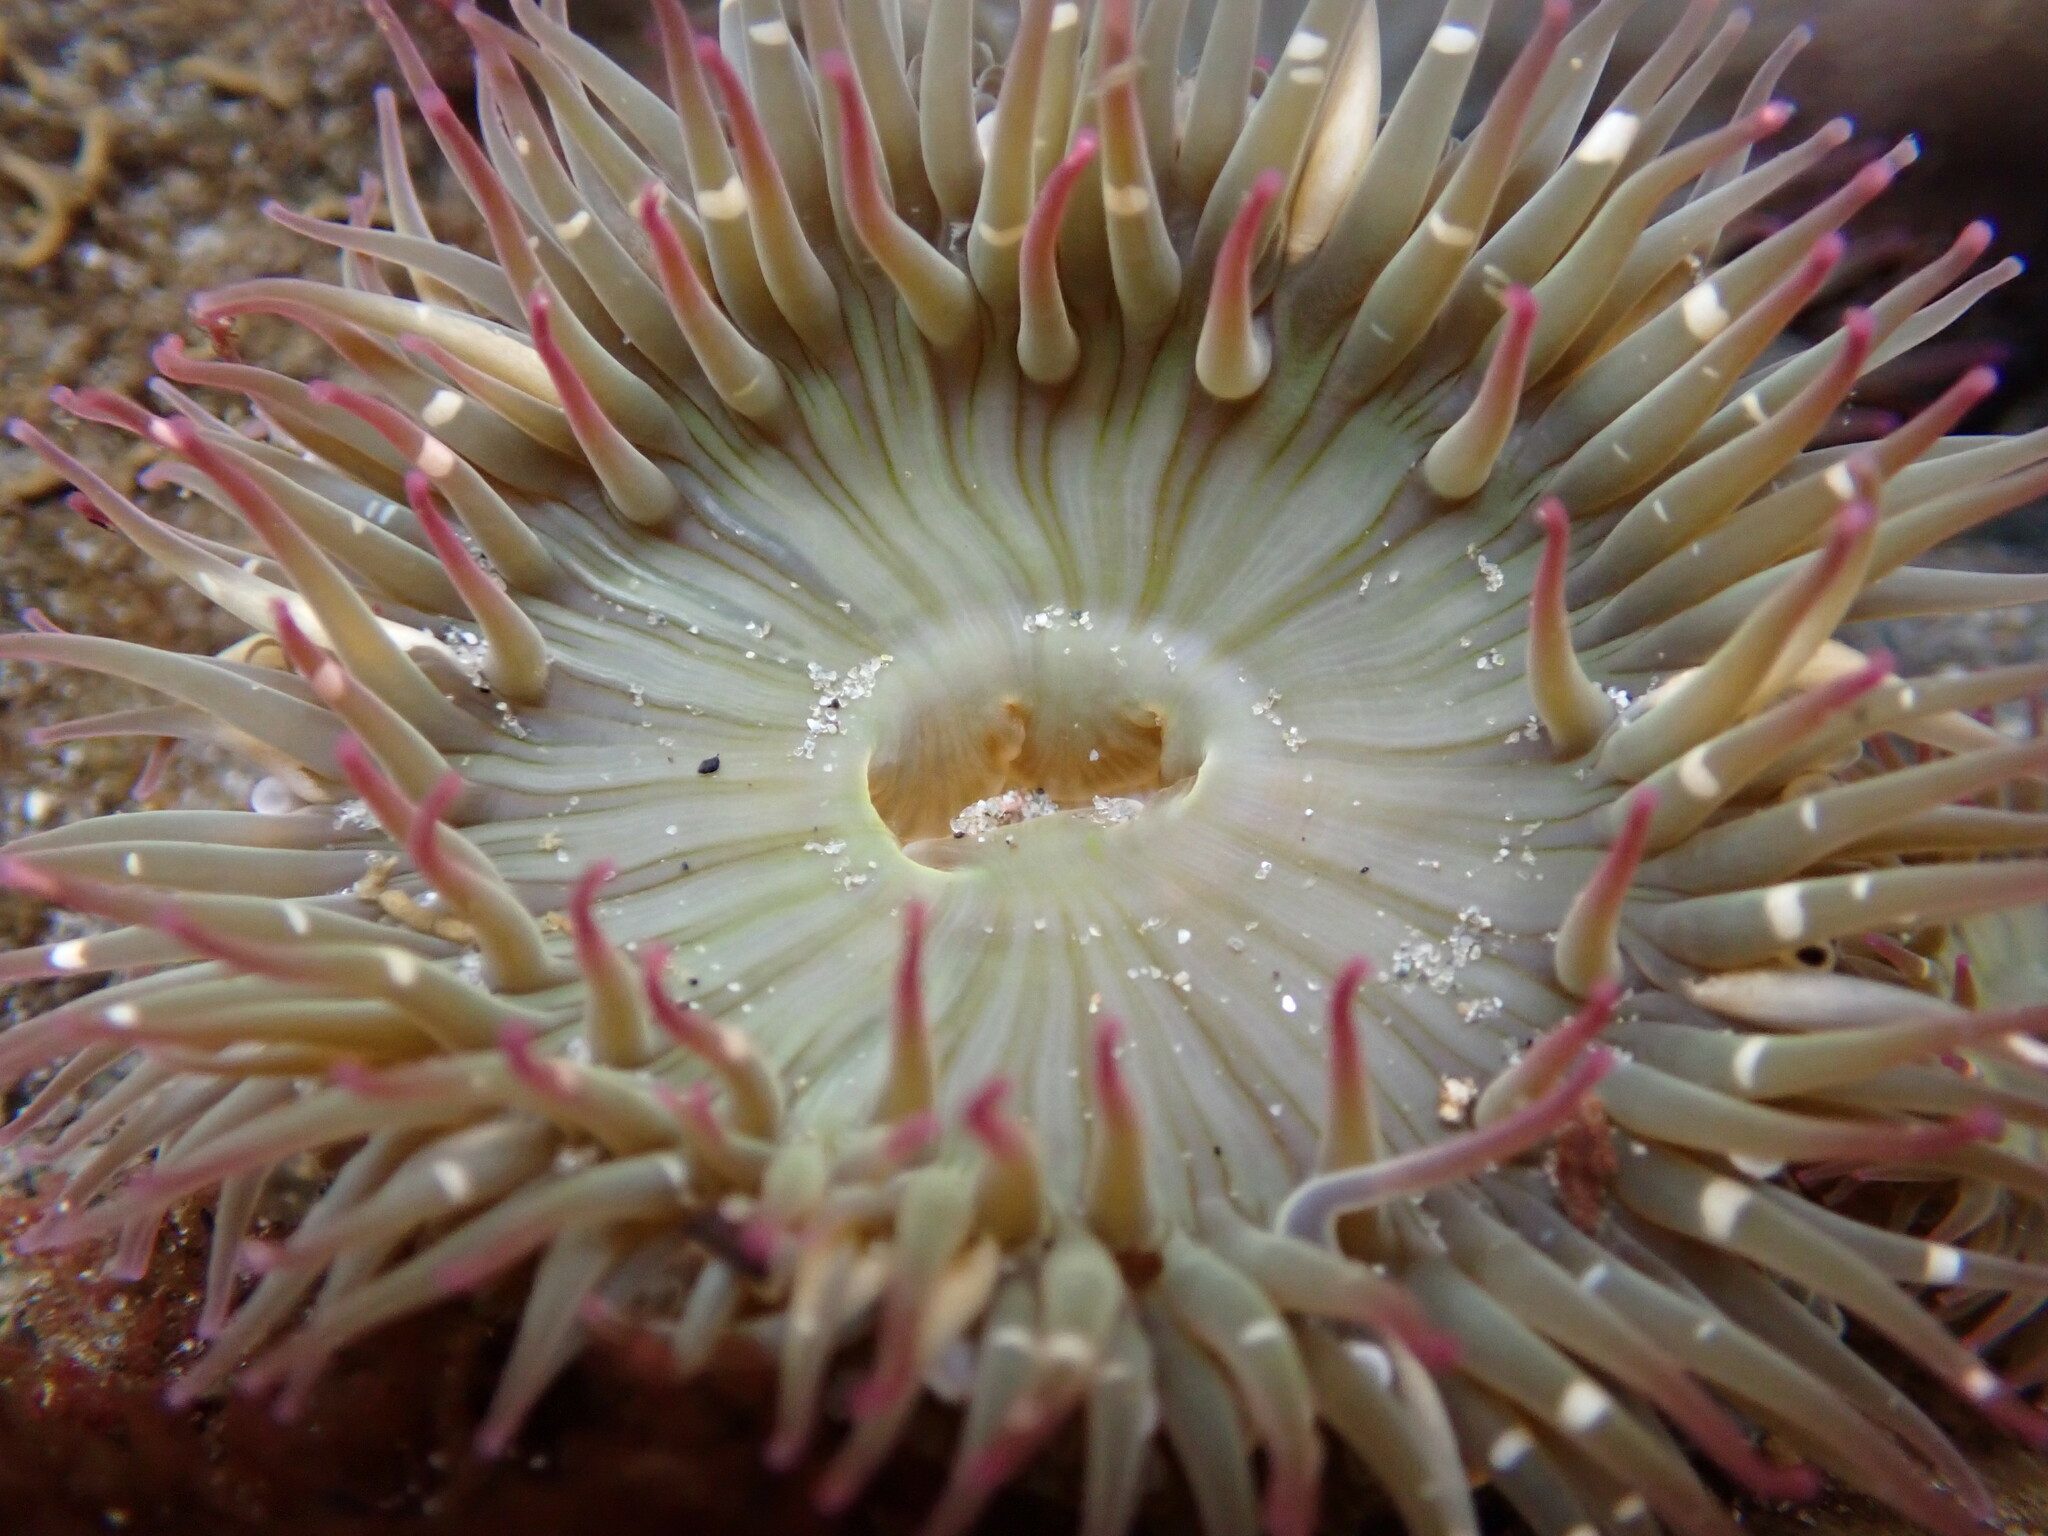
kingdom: Animalia
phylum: Cnidaria
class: Anthozoa
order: Actiniaria
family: Actiniidae
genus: Anthopleura
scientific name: Anthopleura elegantissima
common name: Clonal anemone
